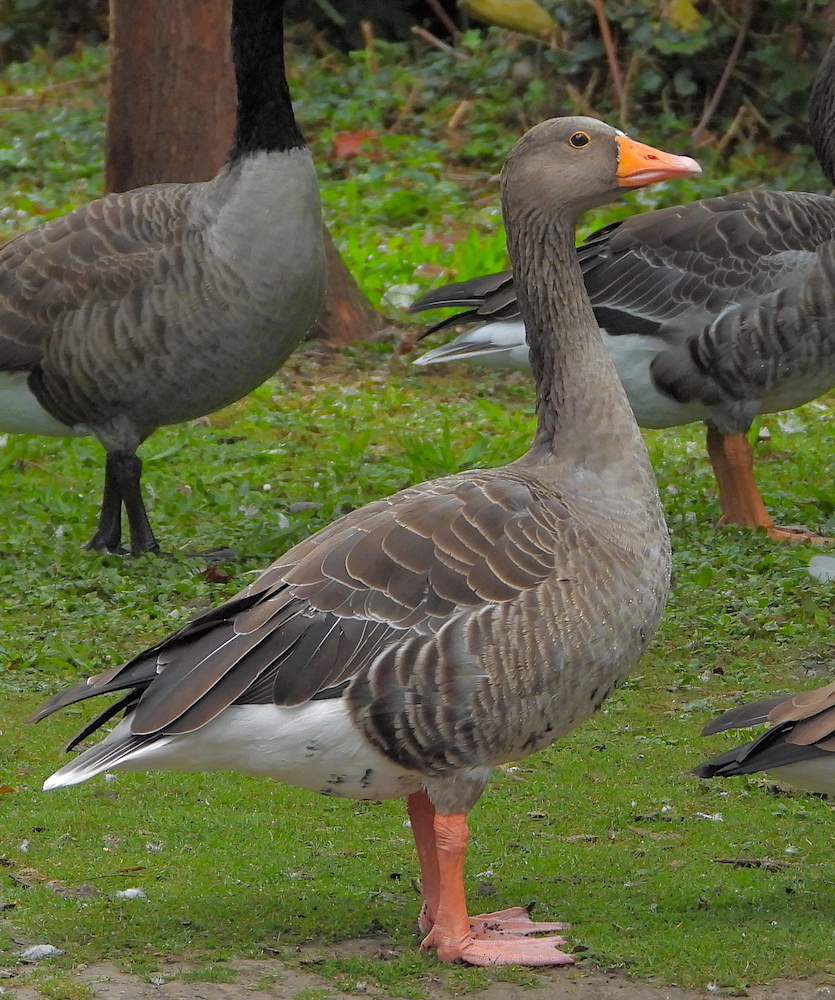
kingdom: Animalia
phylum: Chordata
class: Aves
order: Anseriformes
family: Anatidae
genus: Anser
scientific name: Anser anser
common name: Greylag goose
